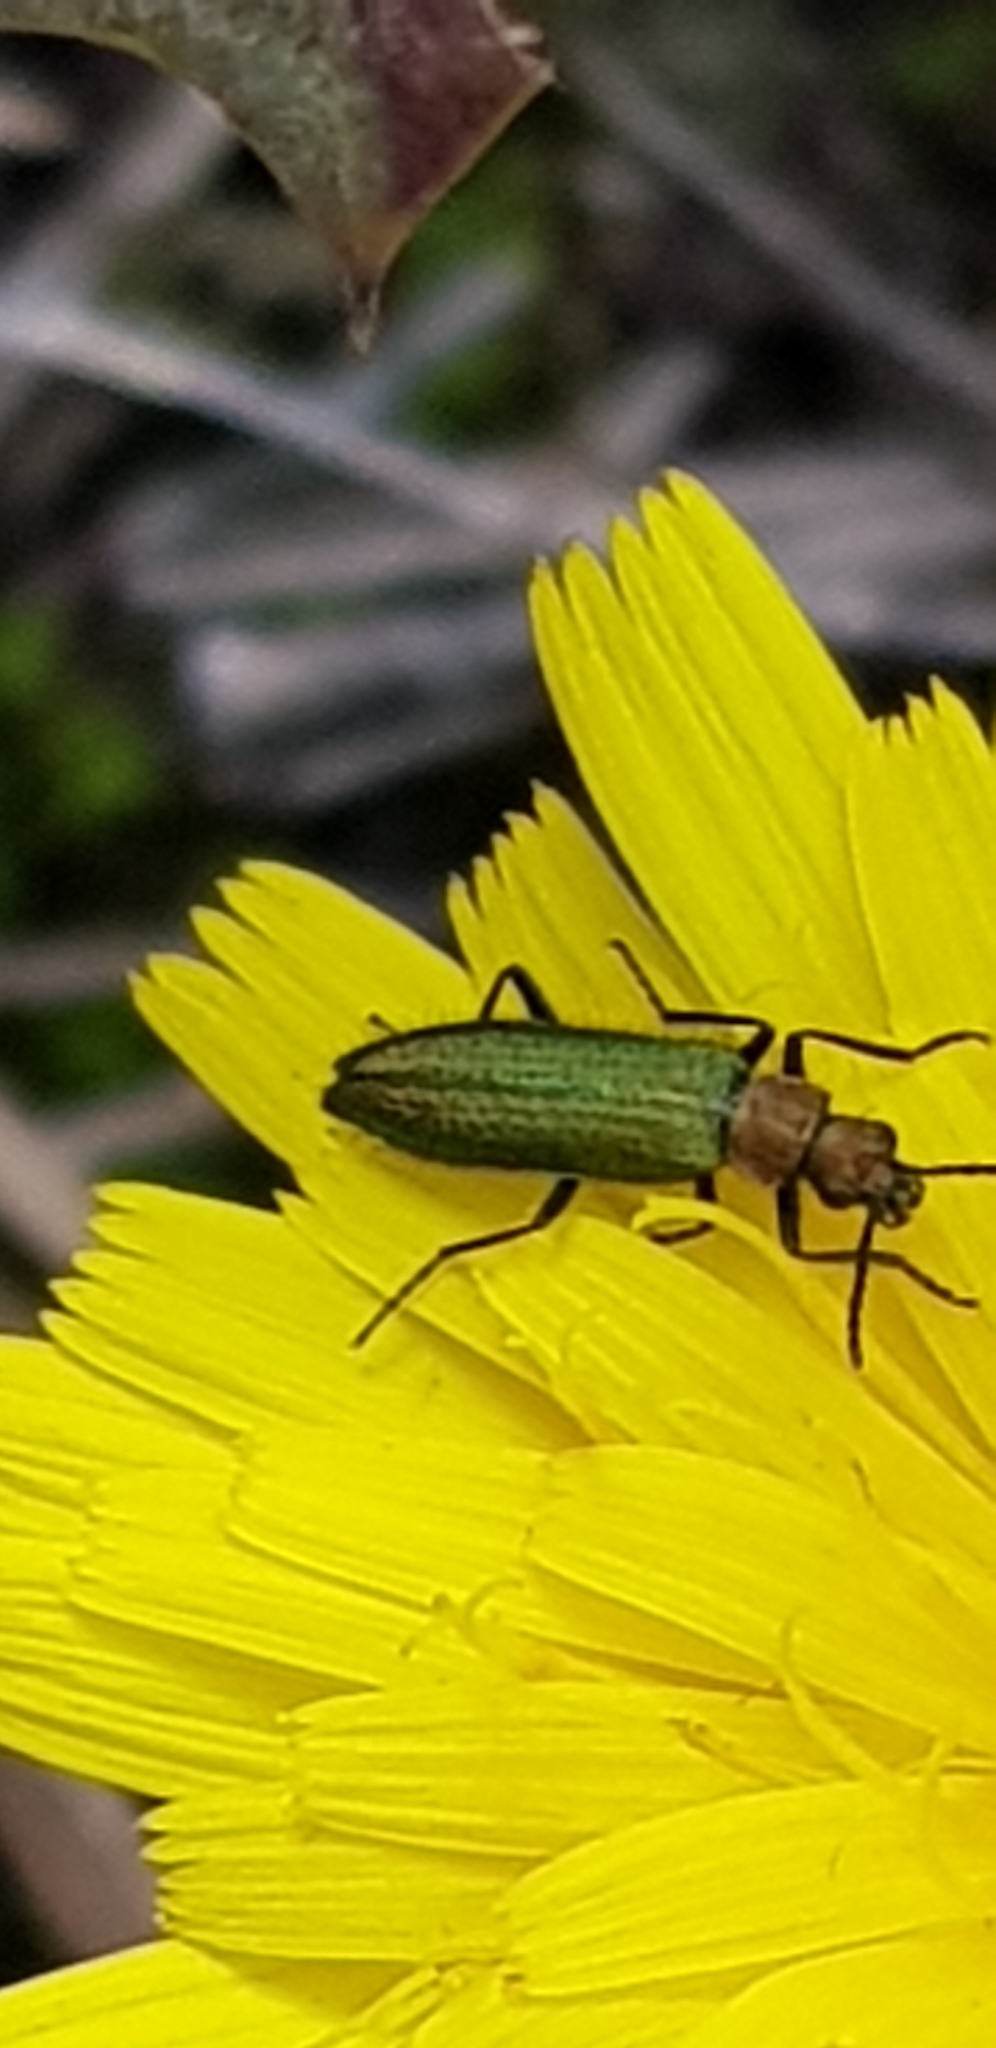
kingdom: Animalia
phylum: Arthropoda
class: Insecta
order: Coleoptera
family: Stenotrachelidae
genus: Stenotrachelus
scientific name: Stenotrachelus aeneus
